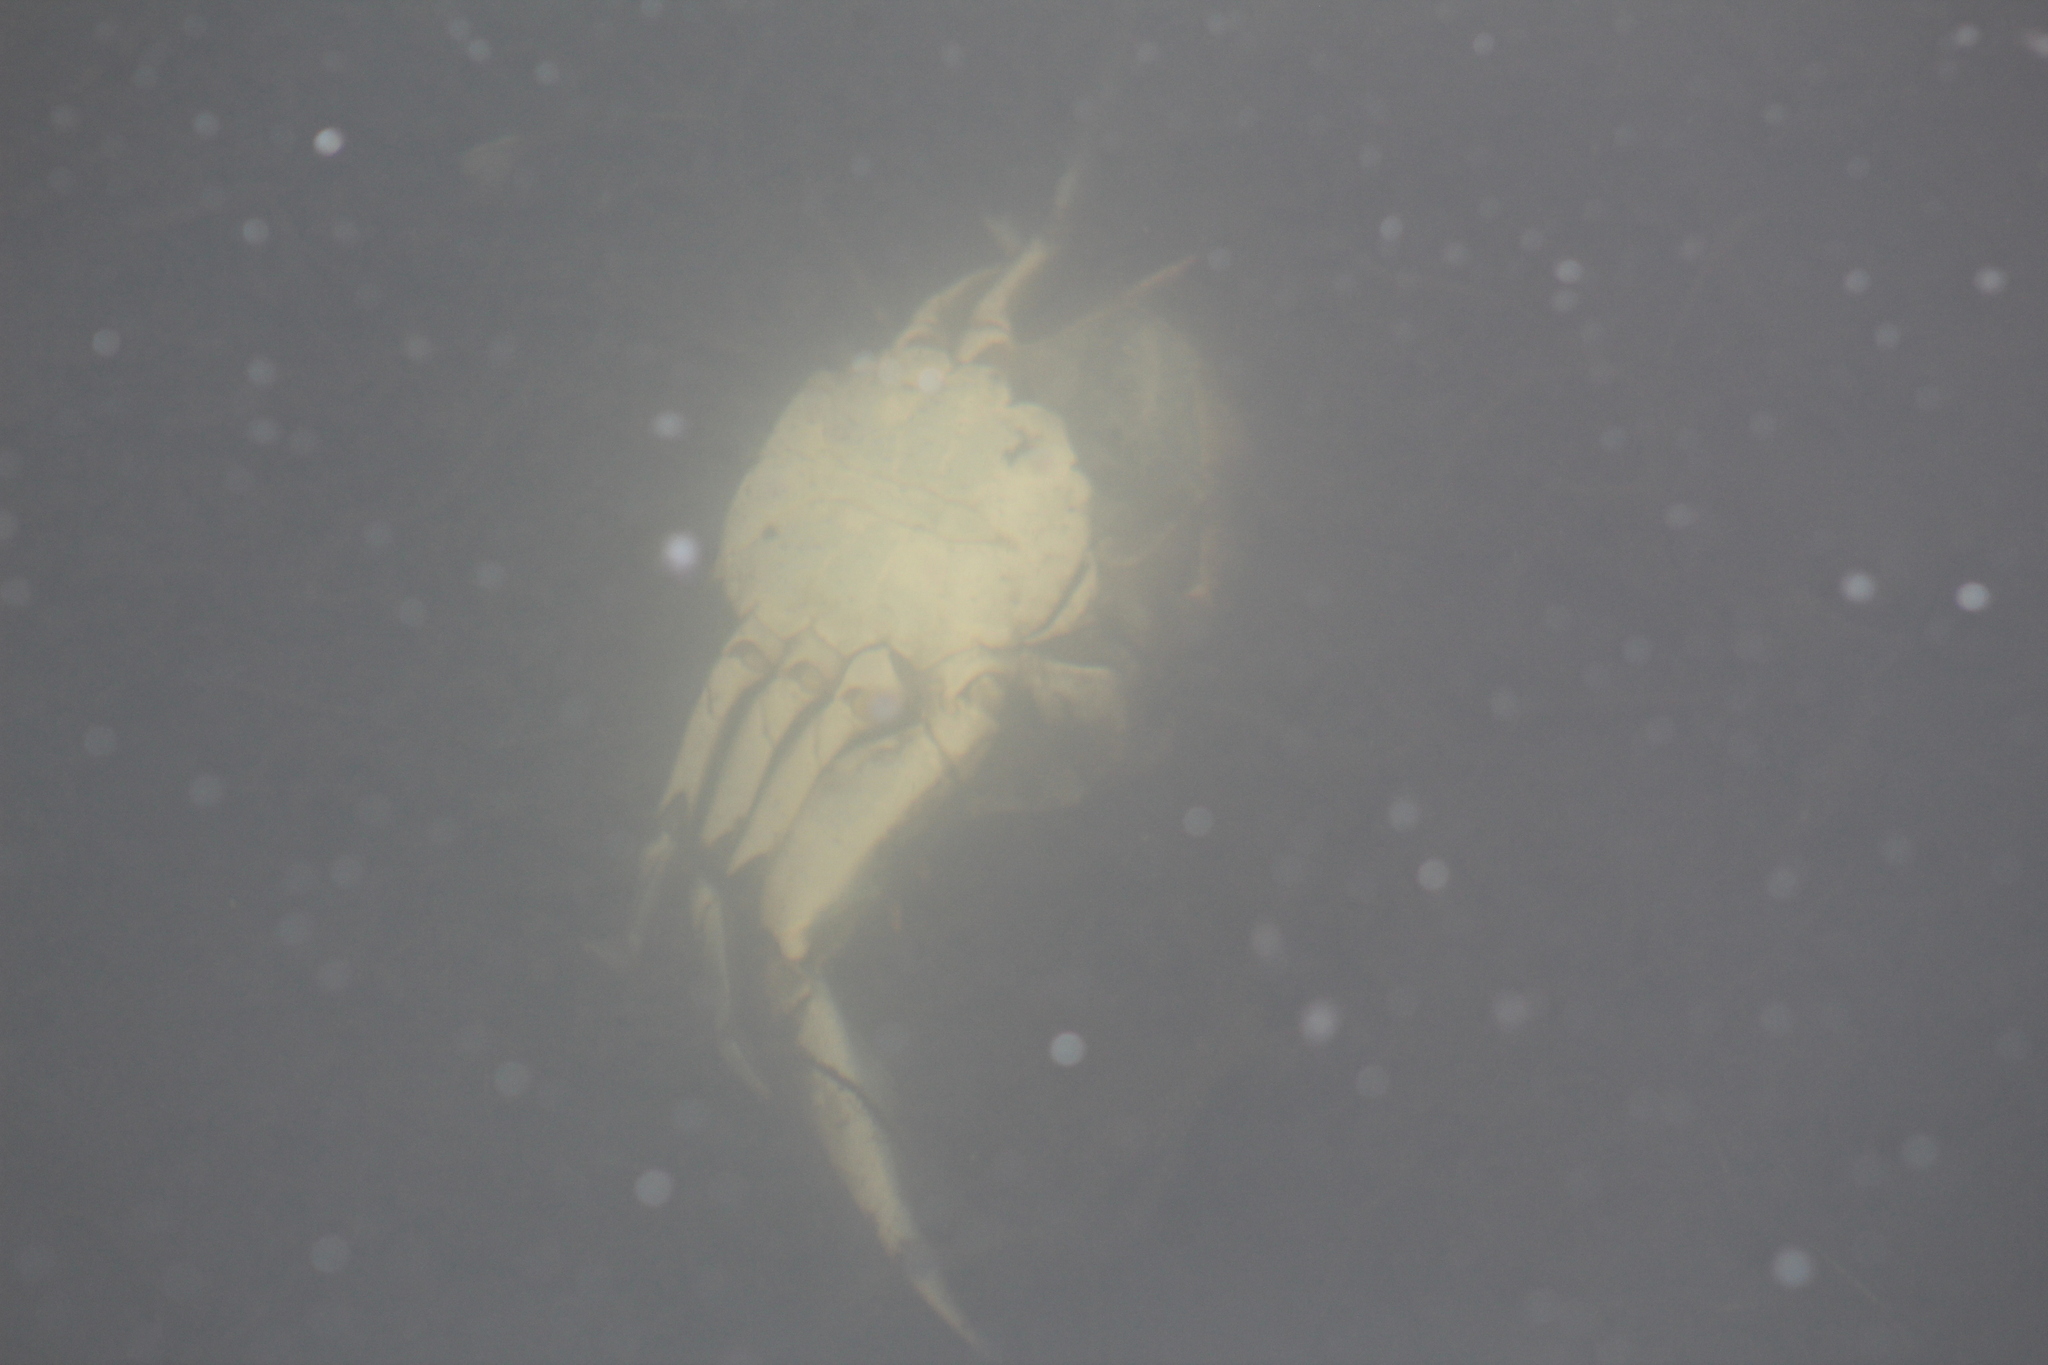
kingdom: Animalia
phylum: Arthropoda
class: Malacostraca
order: Decapoda
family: Portunidae
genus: Callinectes
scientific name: Callinectes sapidus
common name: Blue crab
